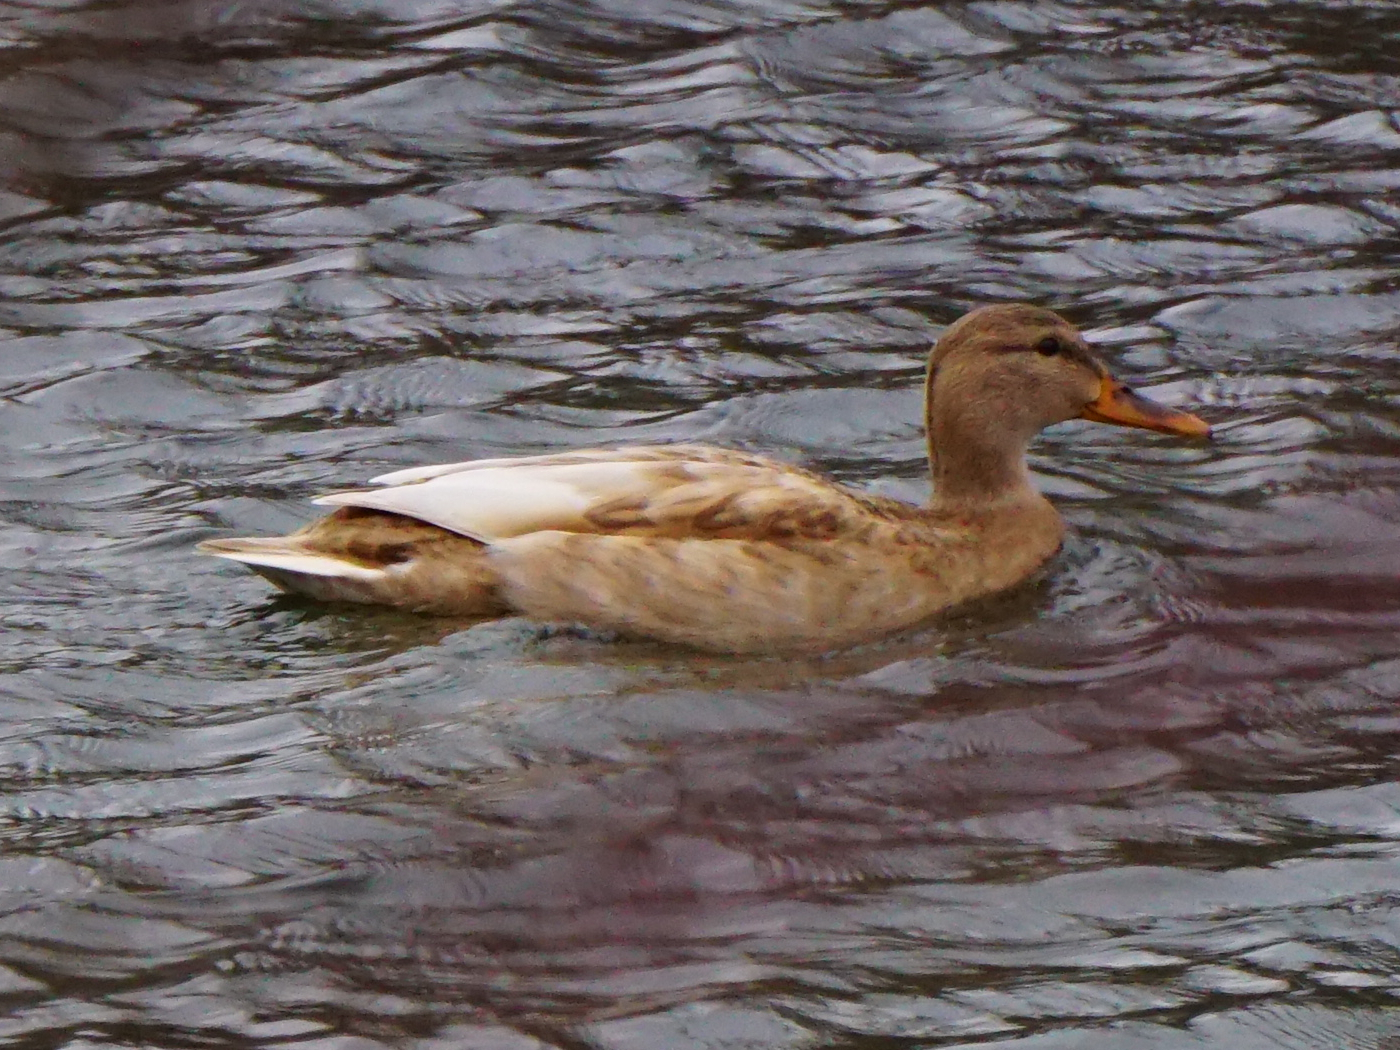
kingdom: Animalia
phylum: Chordata
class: Aves
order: Anseriformes
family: Anatidae
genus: Anas
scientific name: Anas platyrhynchos
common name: Mallard
